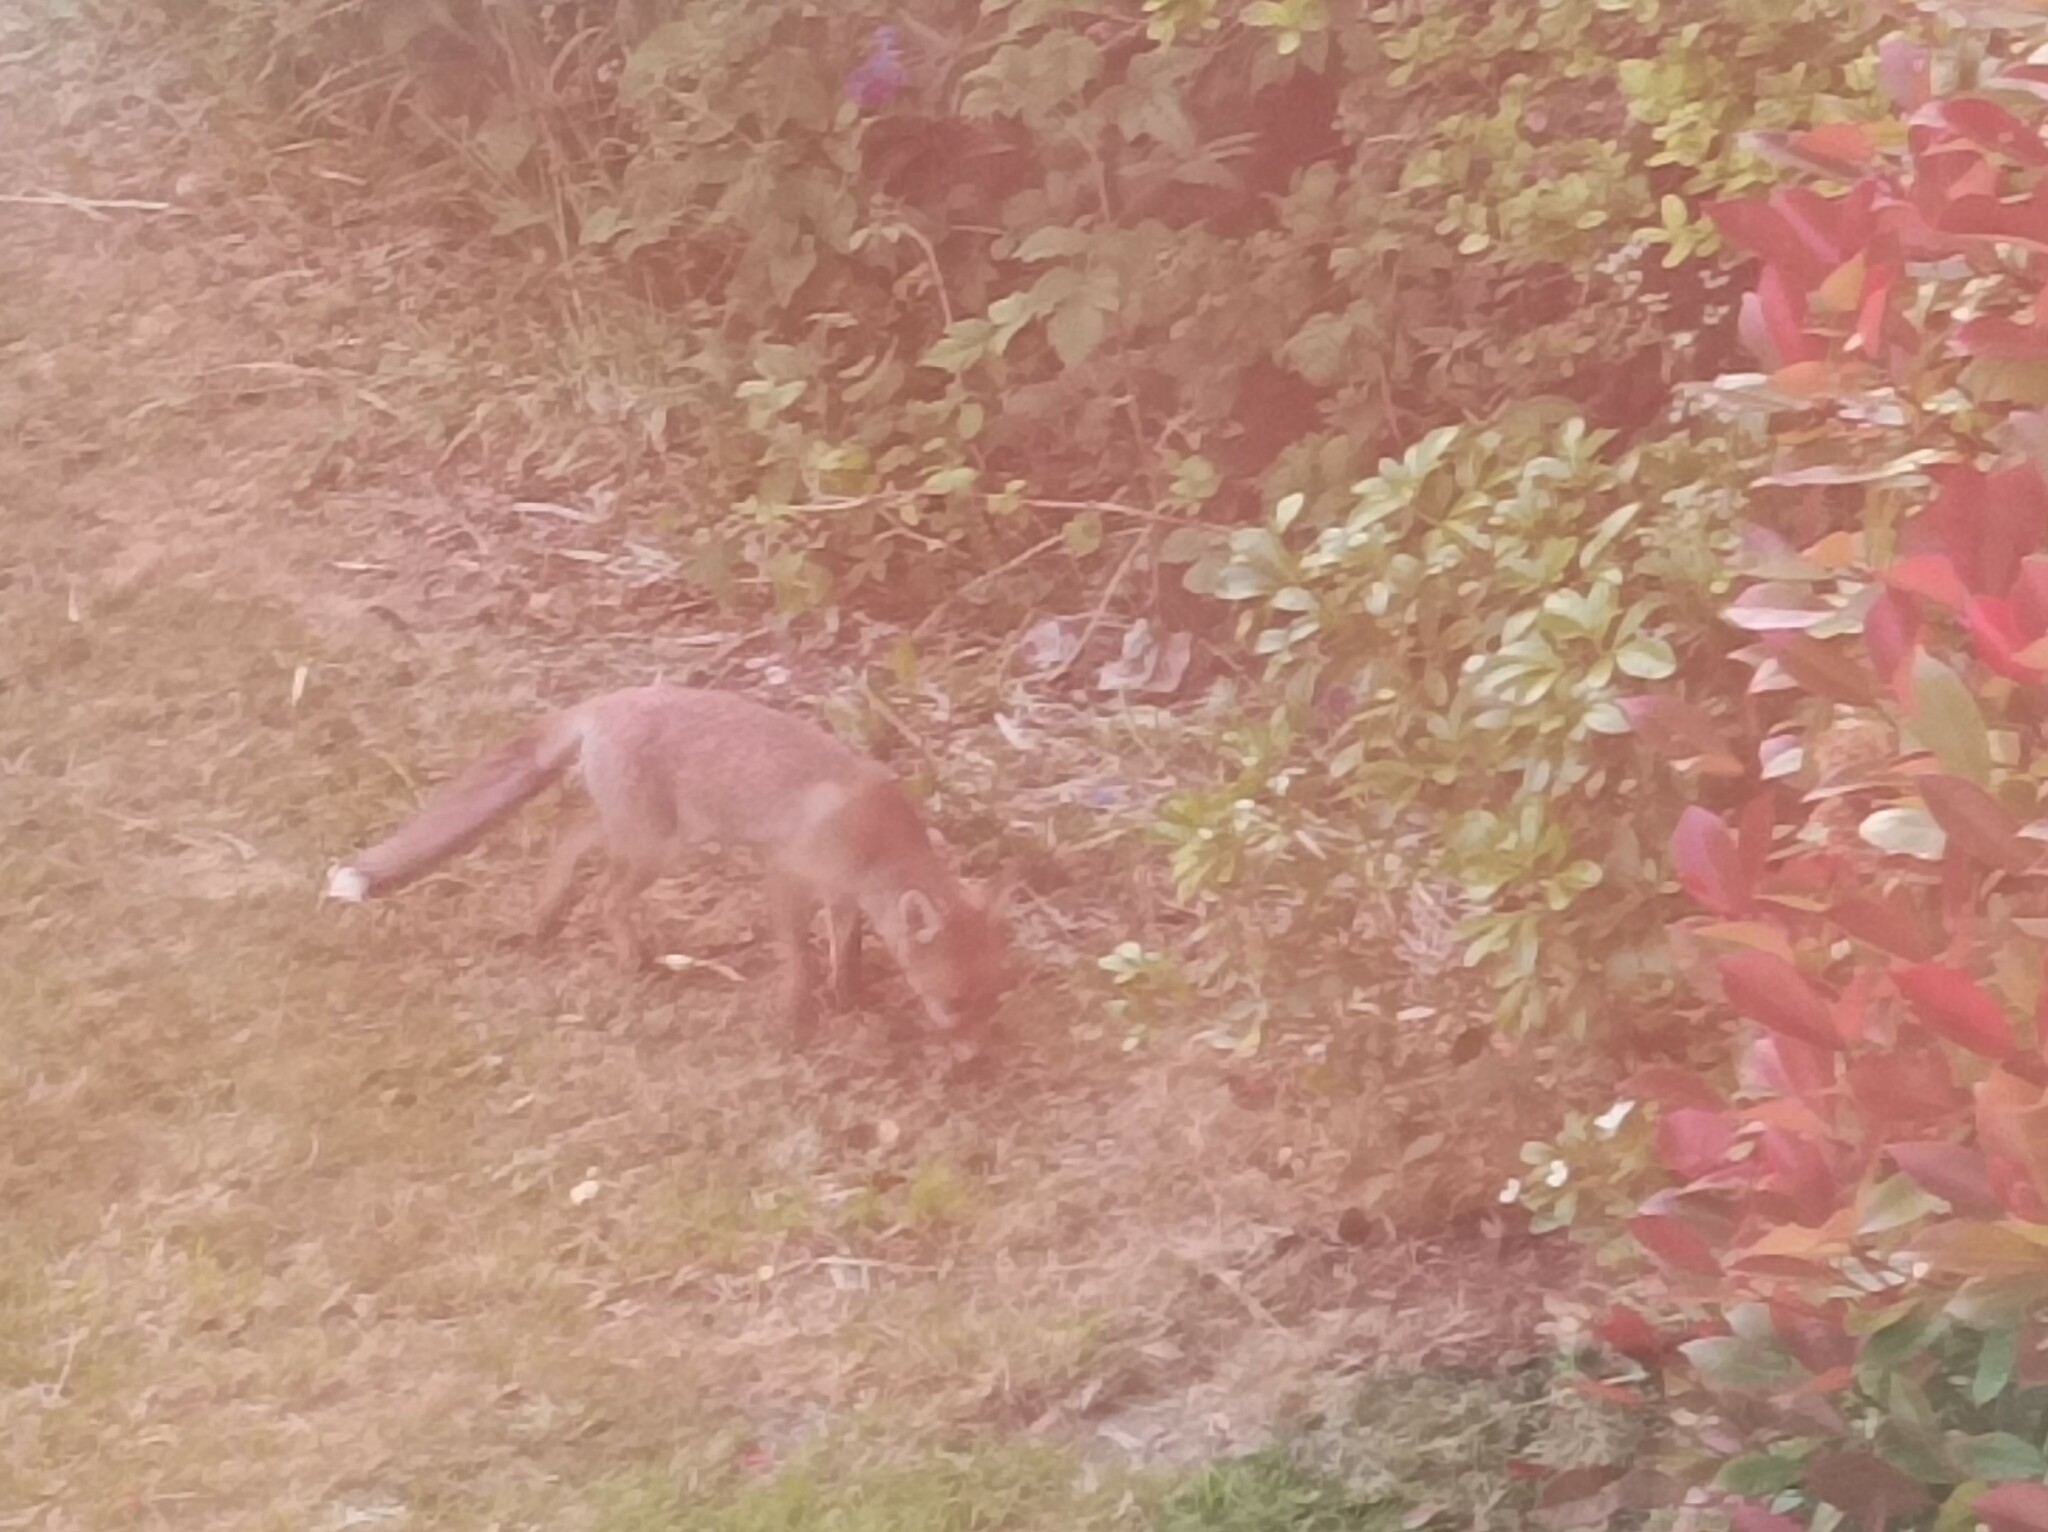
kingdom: Animalia
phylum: Chordata
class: Mammalia
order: Carnivora
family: Canidae
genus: Vulpes
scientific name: Vulpes vulpes
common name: Red fox
